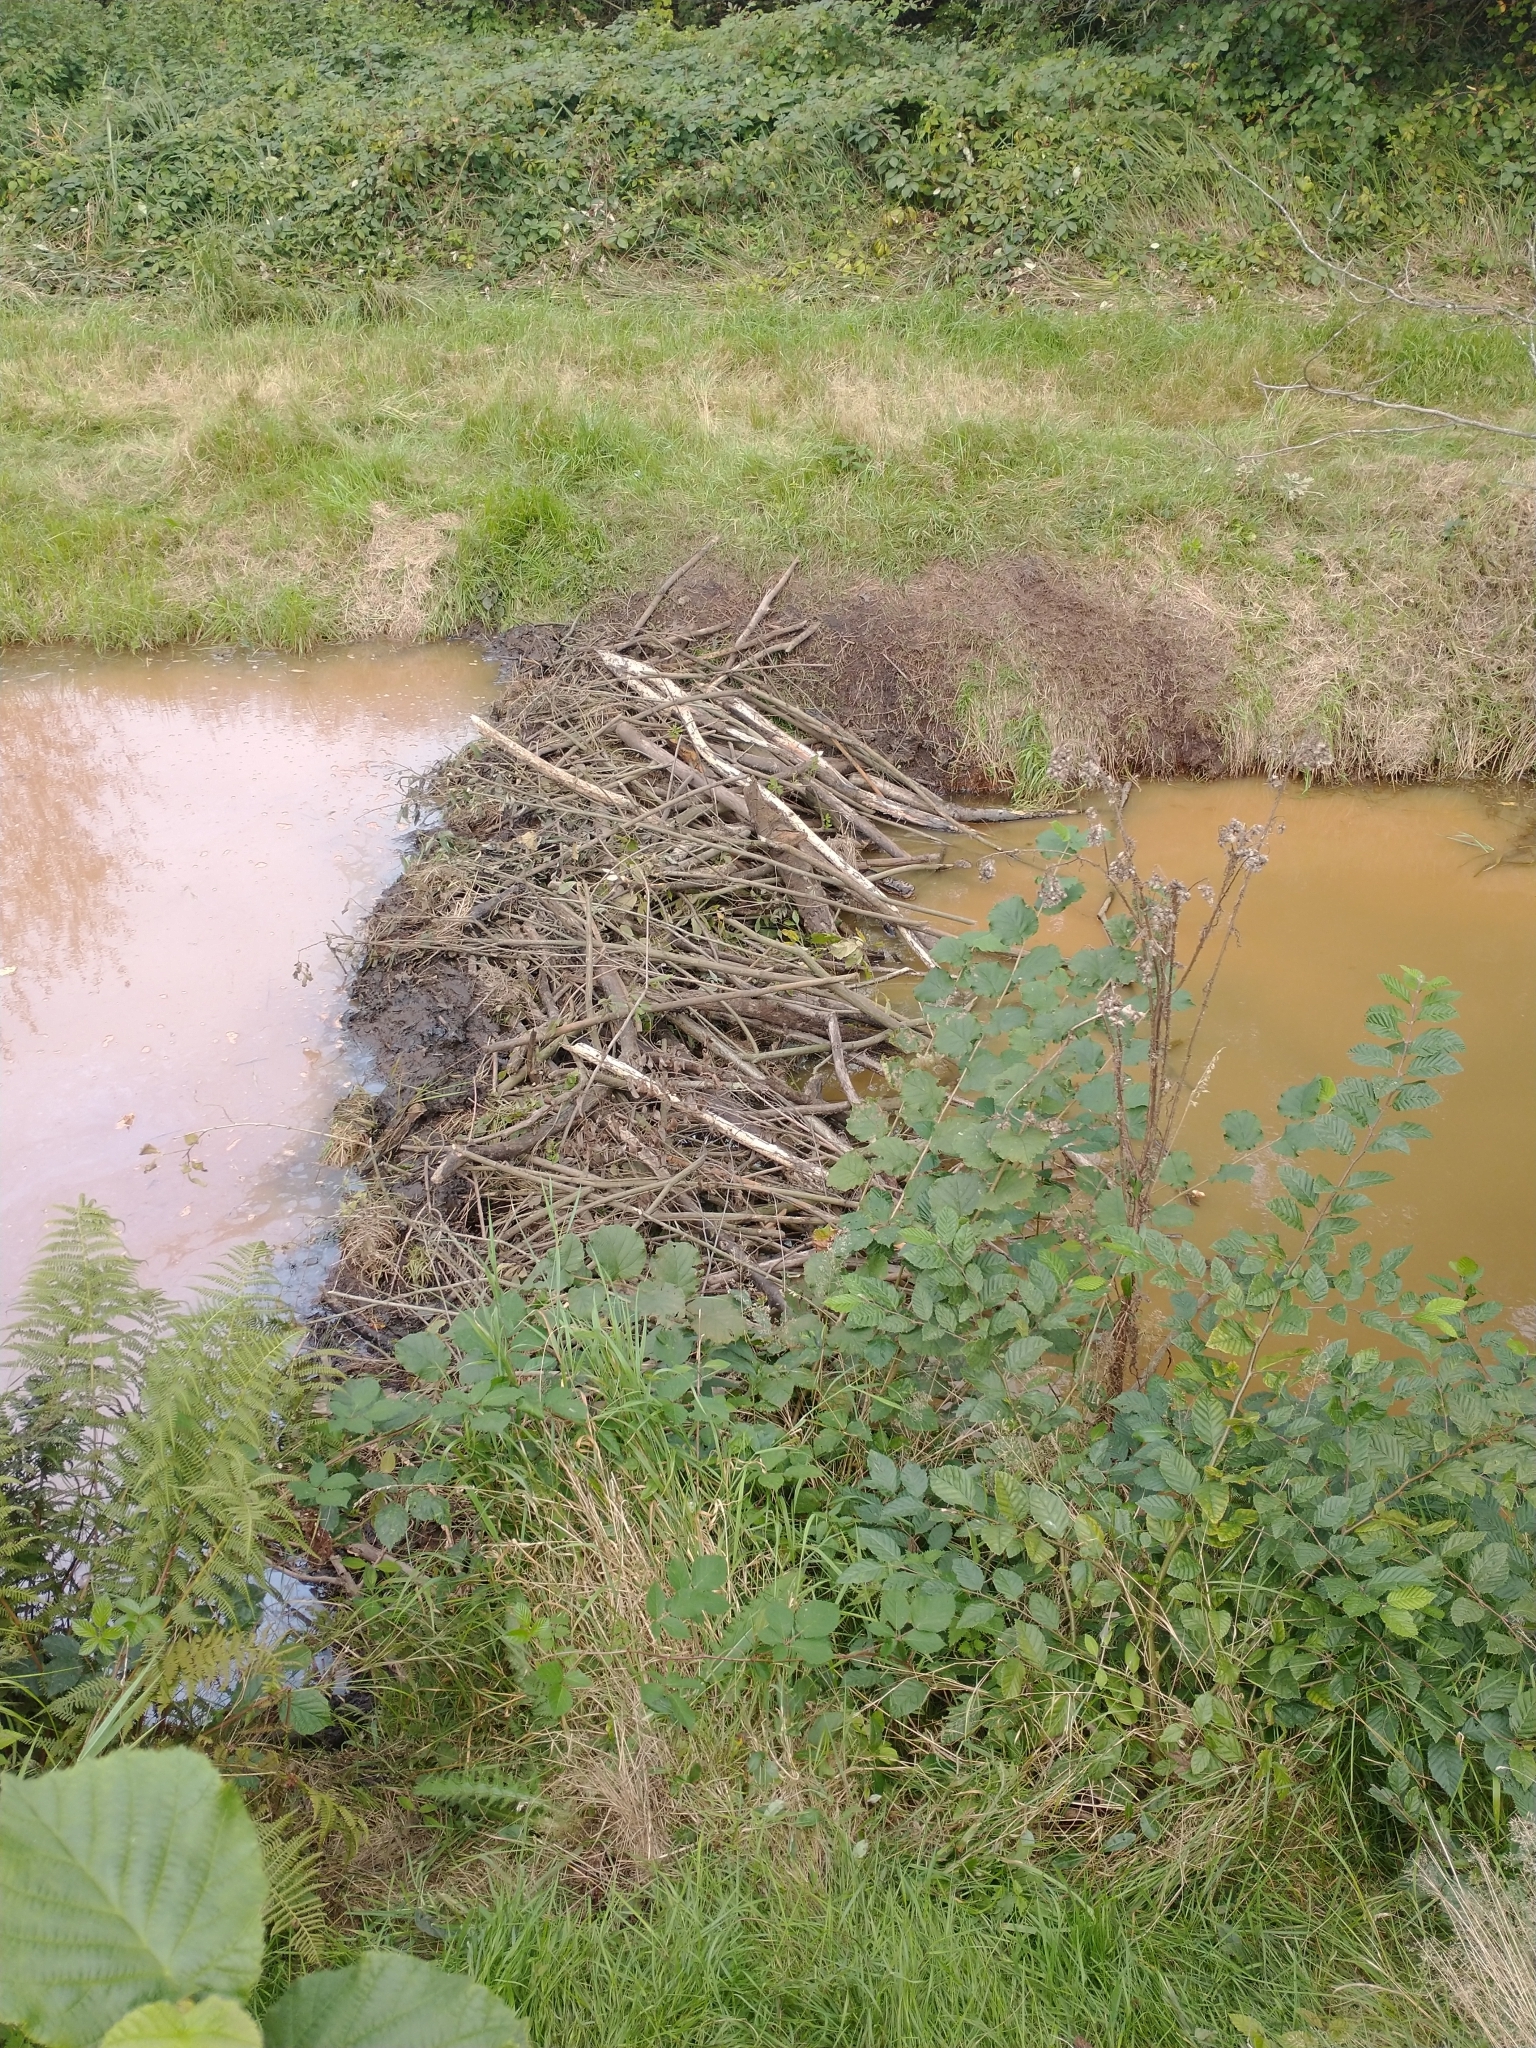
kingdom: Animalia
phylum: Chordata
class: Mammalia
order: Rodentia
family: Castoridae
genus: Castor
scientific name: Castor fiber
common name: Eurasian beaver
